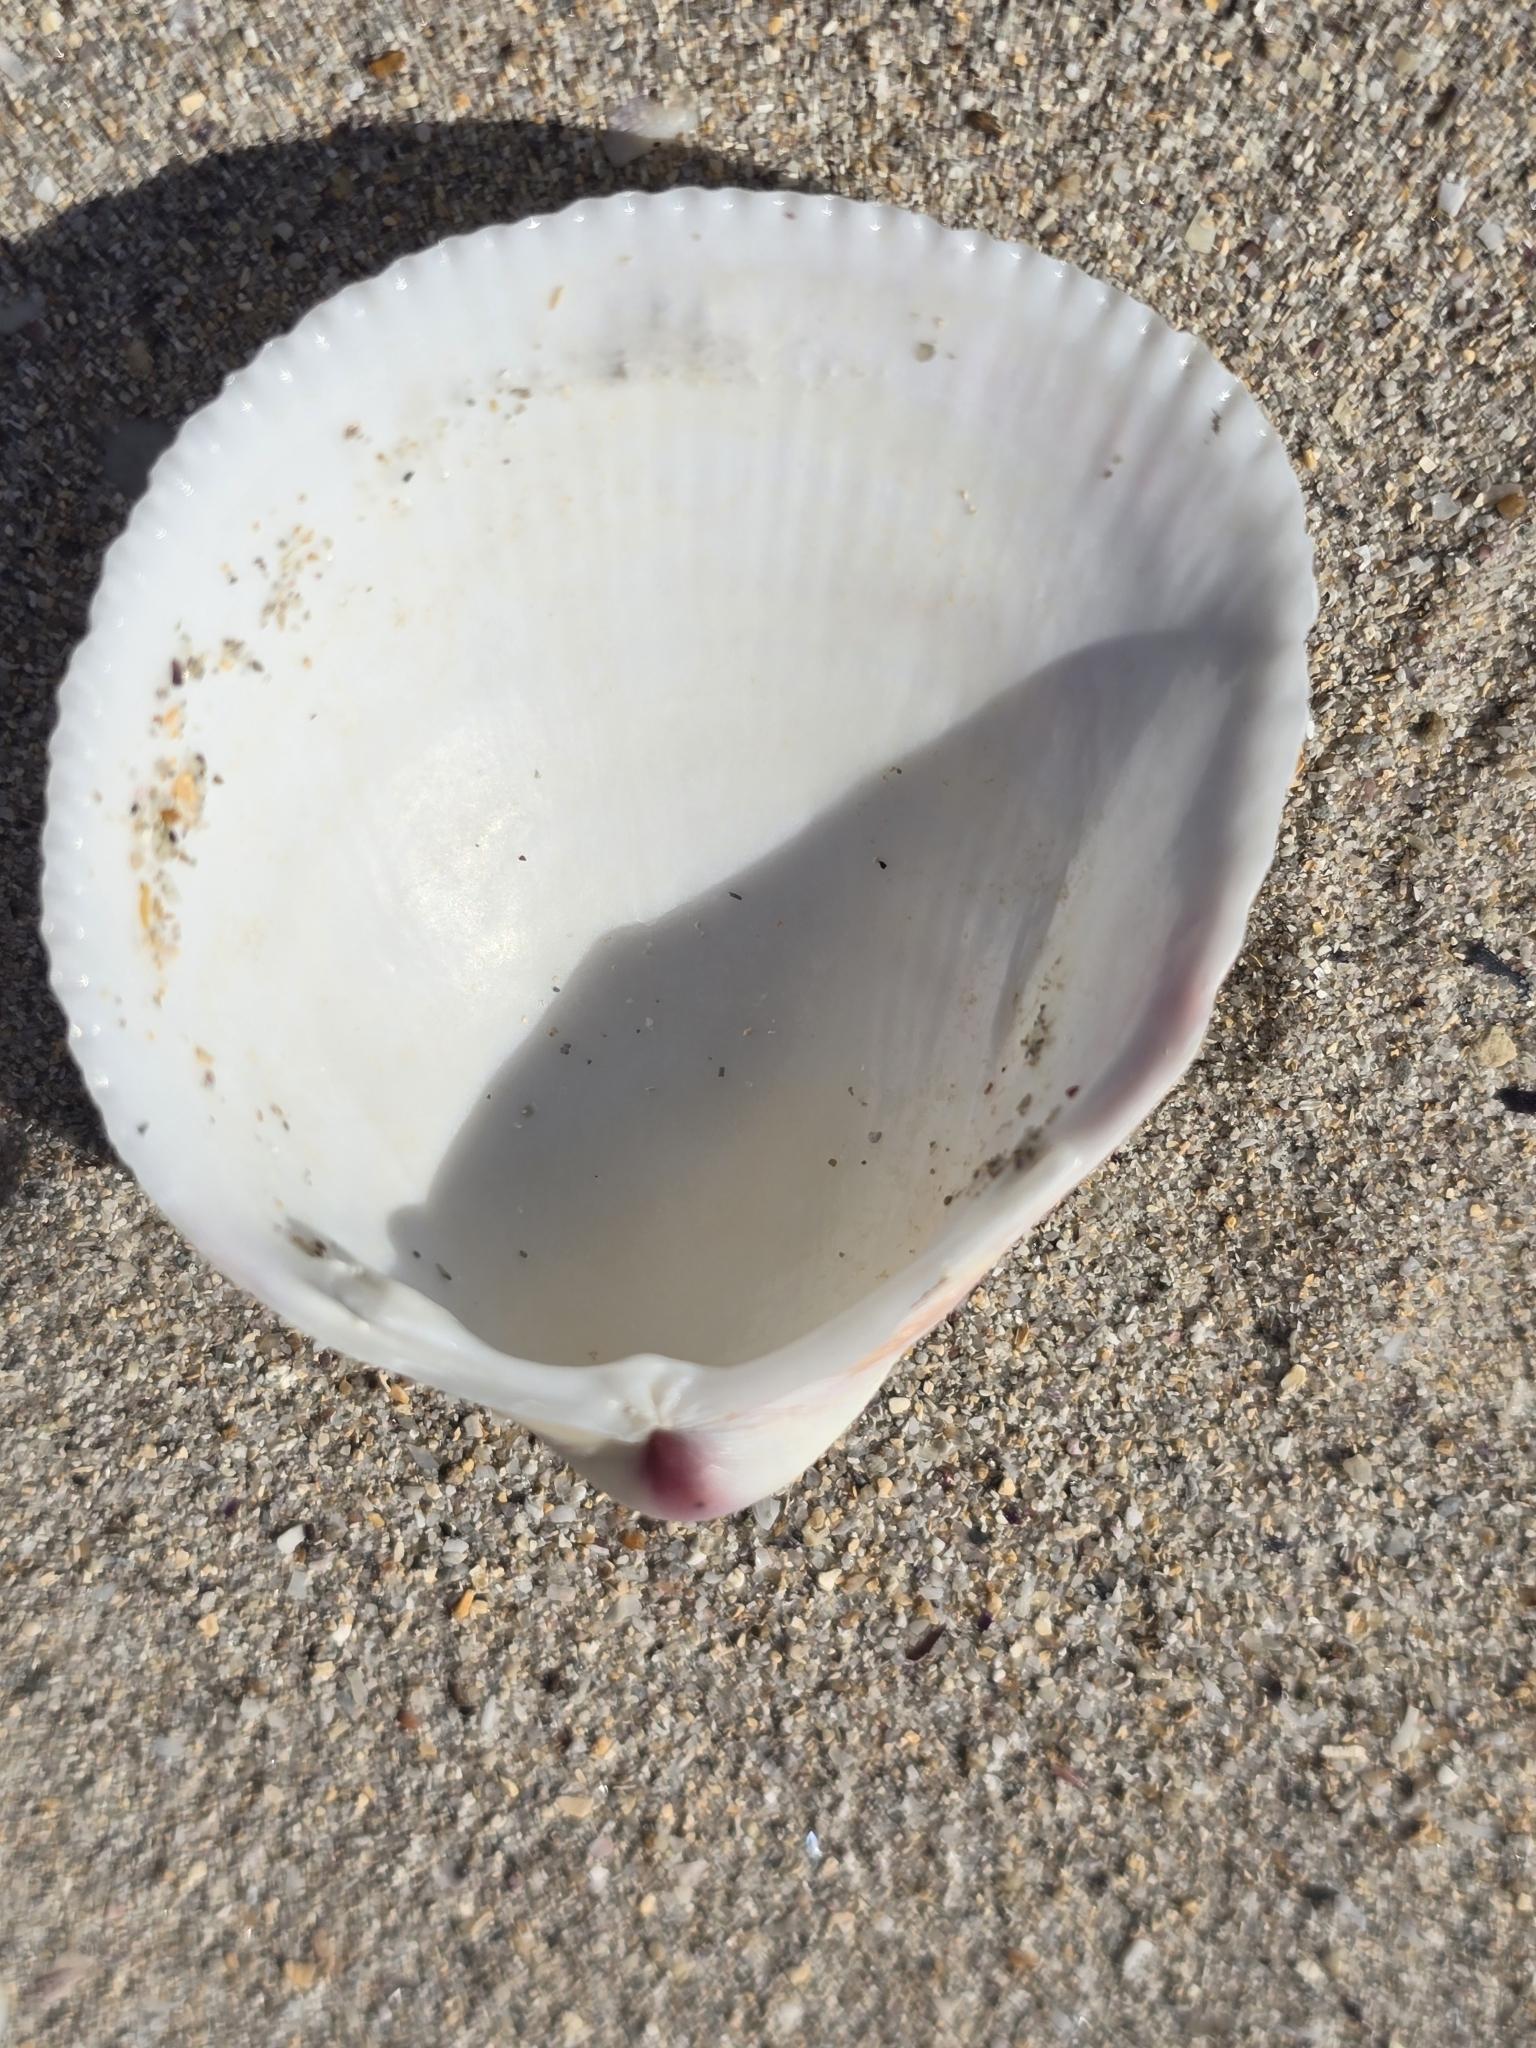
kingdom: Animalia
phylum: Mollusca
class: Bivalvia
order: Cardiida
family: Cardiidae
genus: Fulvia
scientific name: Fulvia tenuicostata
